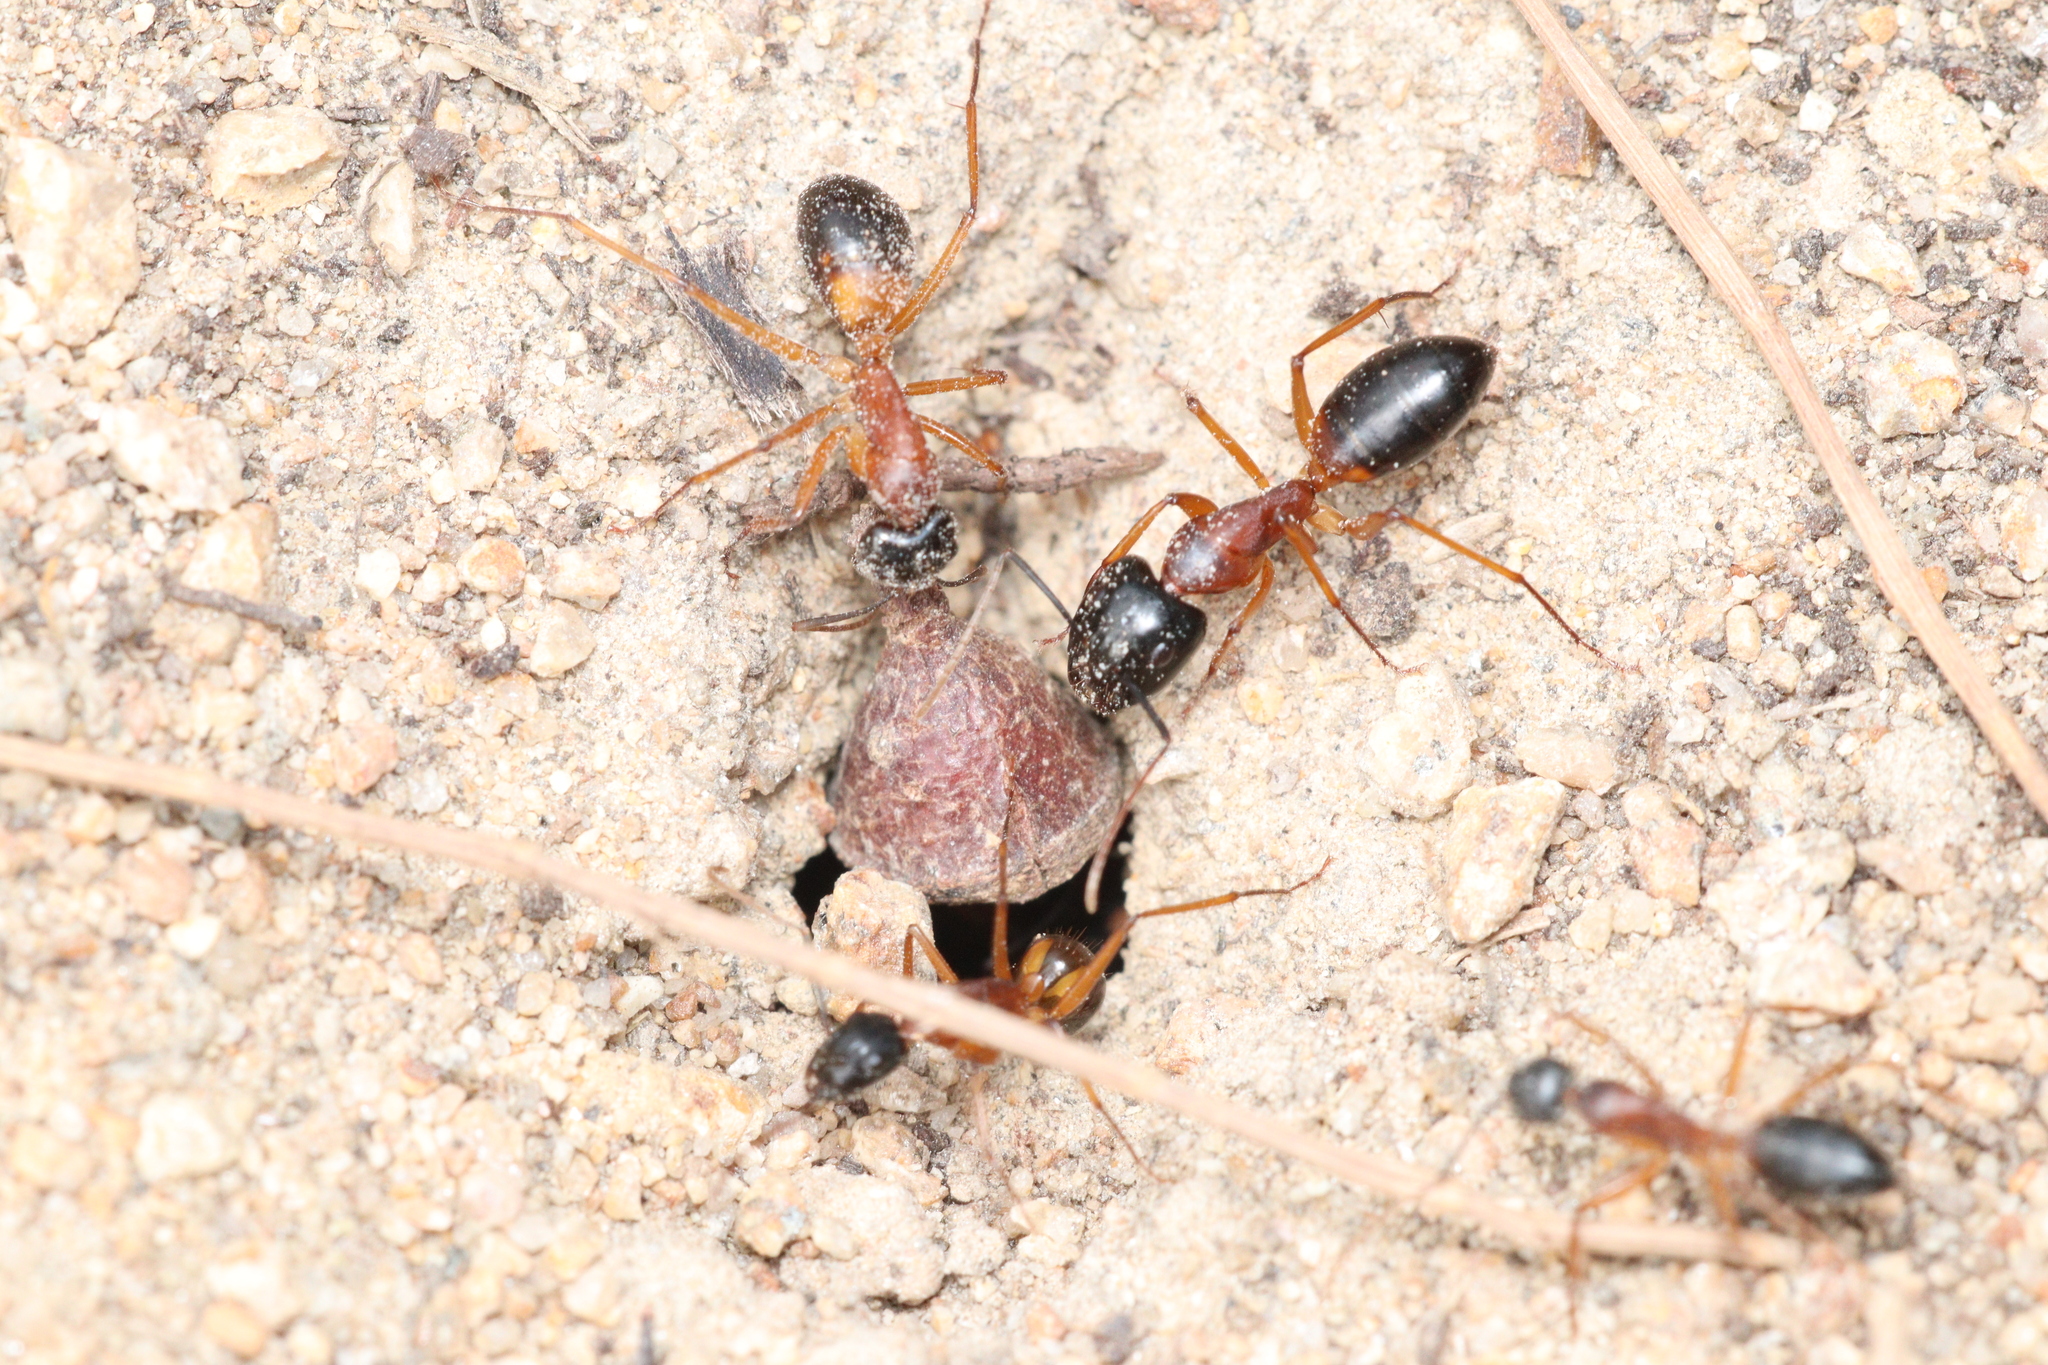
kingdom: Animalia
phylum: Arthropoda
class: Insecta
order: Hymenoptera
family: Formicidae
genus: Camponotus
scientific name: Camponotus consobrinus
